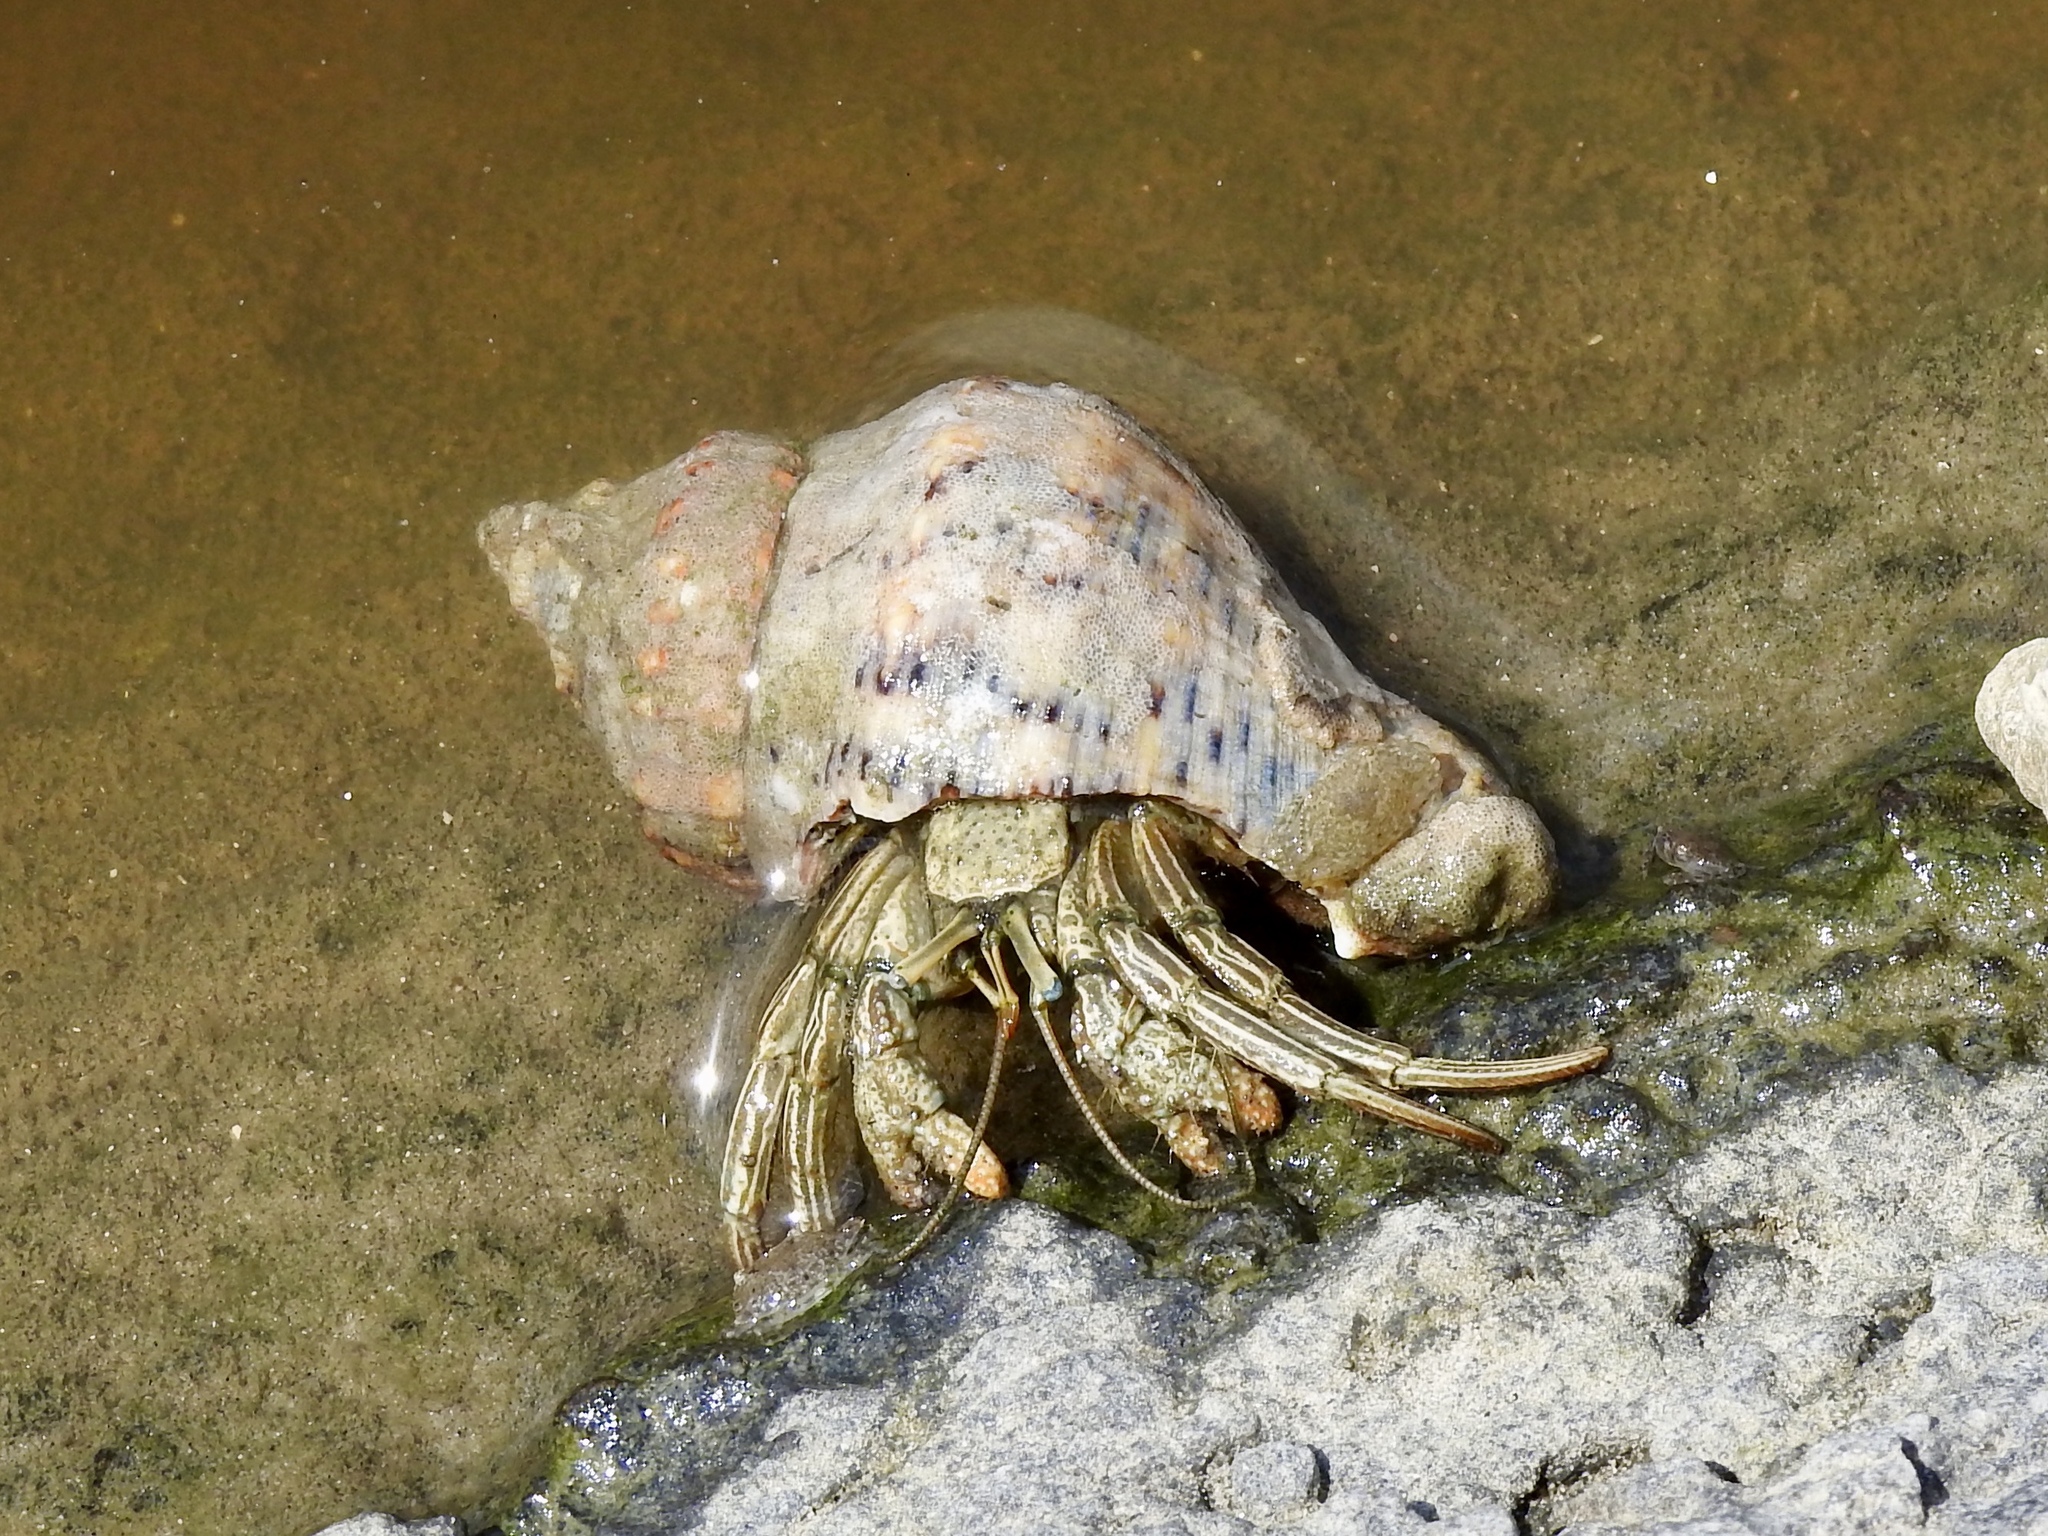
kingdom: Animalia
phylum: Arthropoda
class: Malacostraca
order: Decapoda
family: Diogenidae
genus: Clibanarius
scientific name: Clibanarius vittatus
